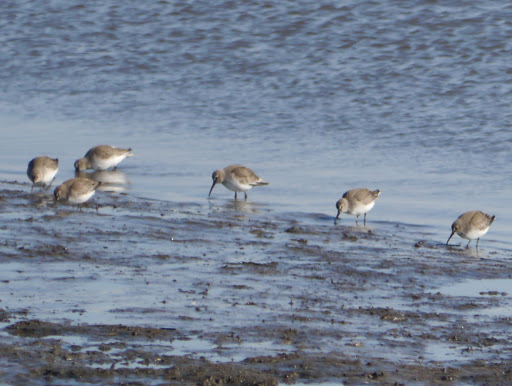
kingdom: Animalia
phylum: Chordata
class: Aves
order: Charadriiformes
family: Scolopacidae
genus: Calidris
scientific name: Calidris alpina
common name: Dunlin
